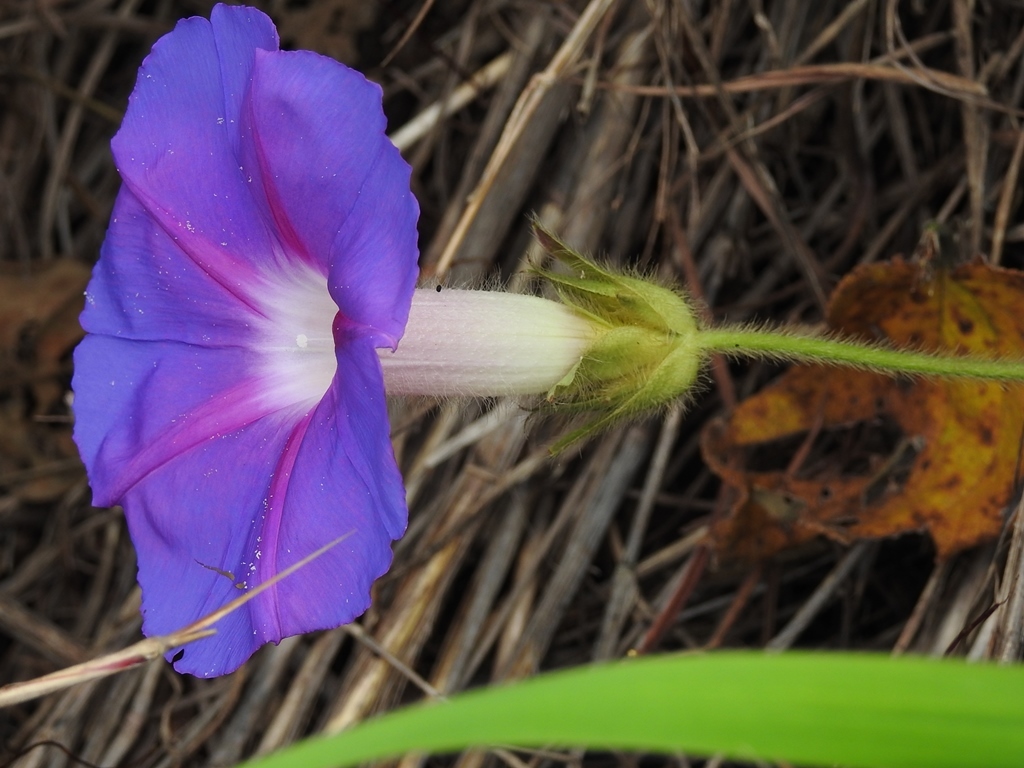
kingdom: Plantae
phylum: Tracheophyta
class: Magnoliopsida
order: Solanales
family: Convolvulaceae
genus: Ipomoea
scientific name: Ipomoea villifera
